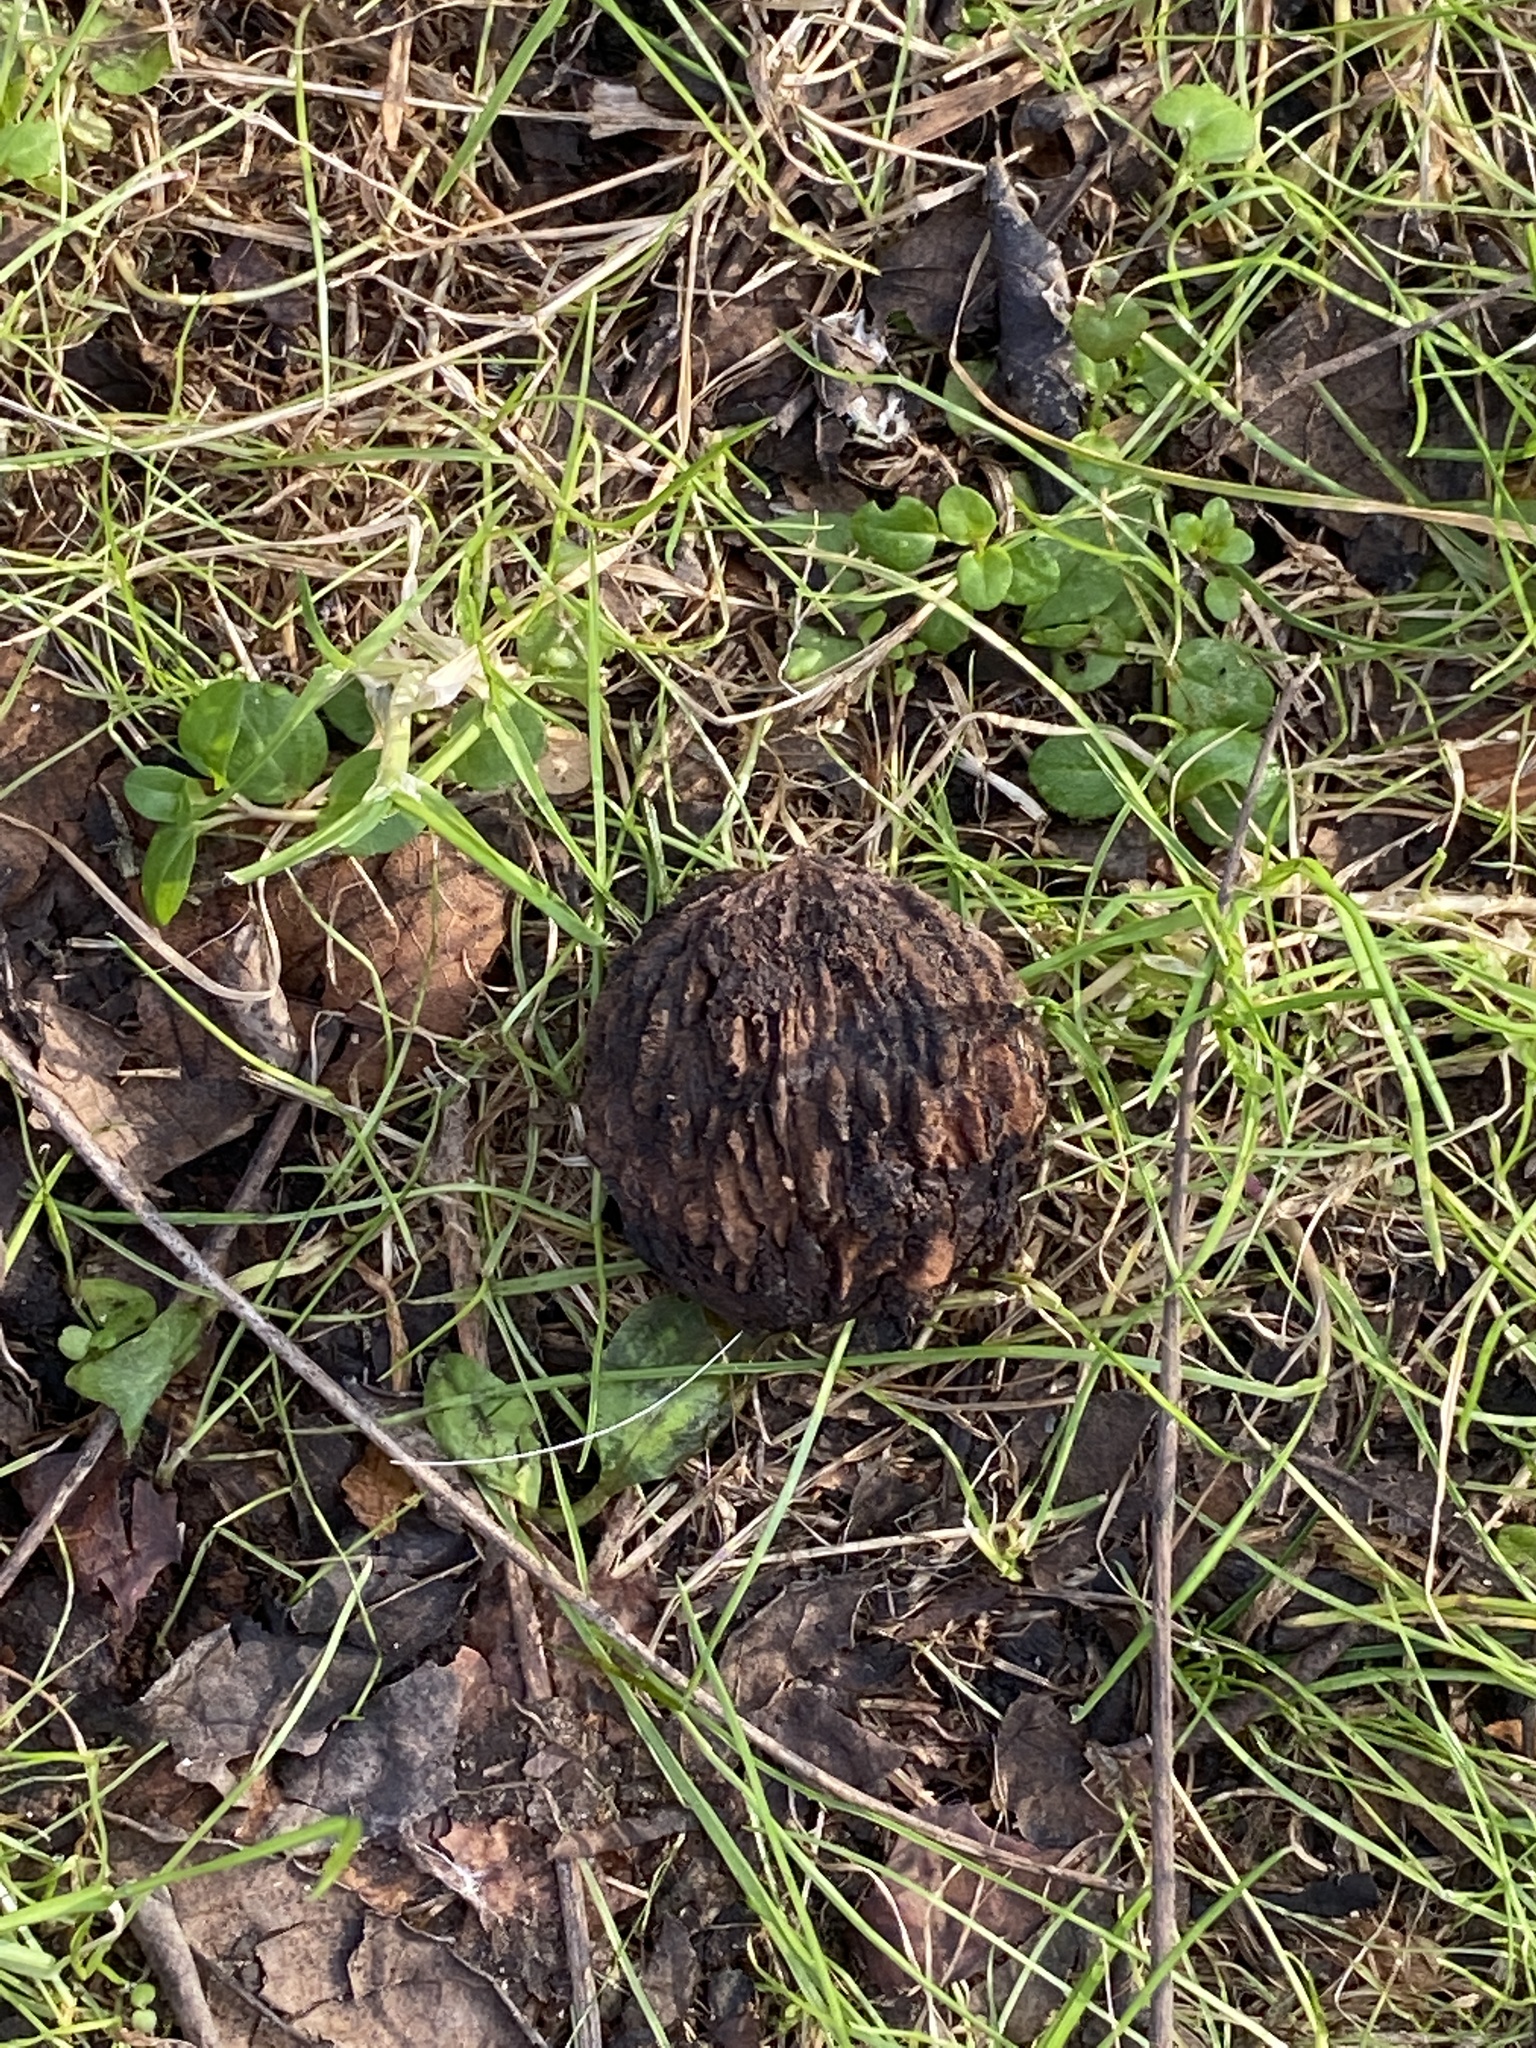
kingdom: Plantae
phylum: Tracheophyta
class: Magnoliopsida
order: Fagales
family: Juglandaceae
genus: Juglans
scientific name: Juglans nigra
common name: Black walnut
